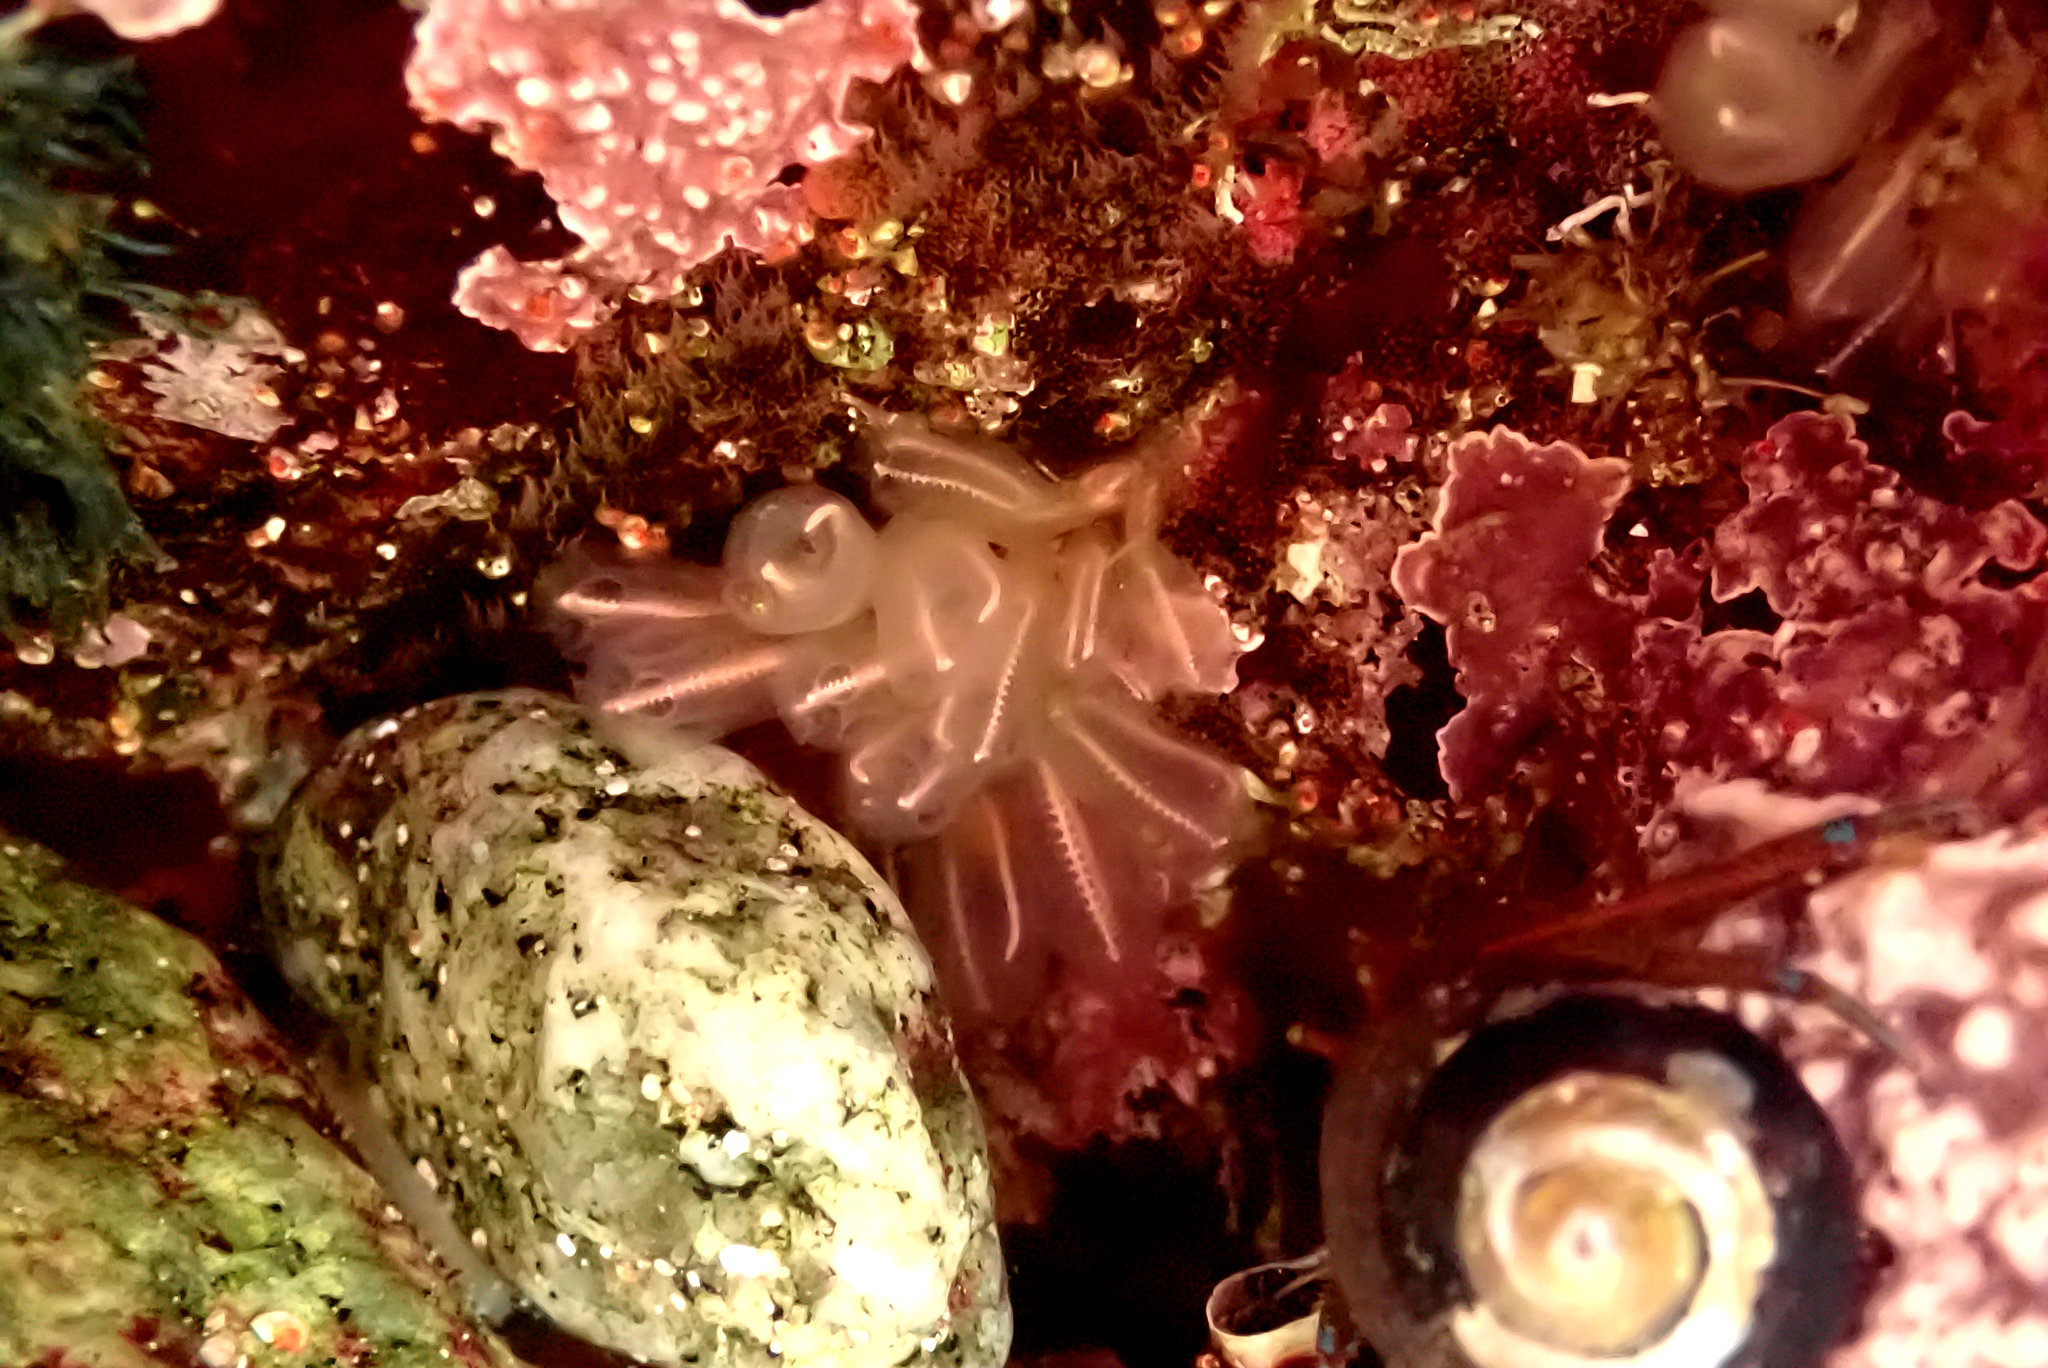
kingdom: Animalia
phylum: Chordata
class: Ascidiacea
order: Aplousobranchia
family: Clavelinidae
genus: Clavelina
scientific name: Clavelina huntsmani
